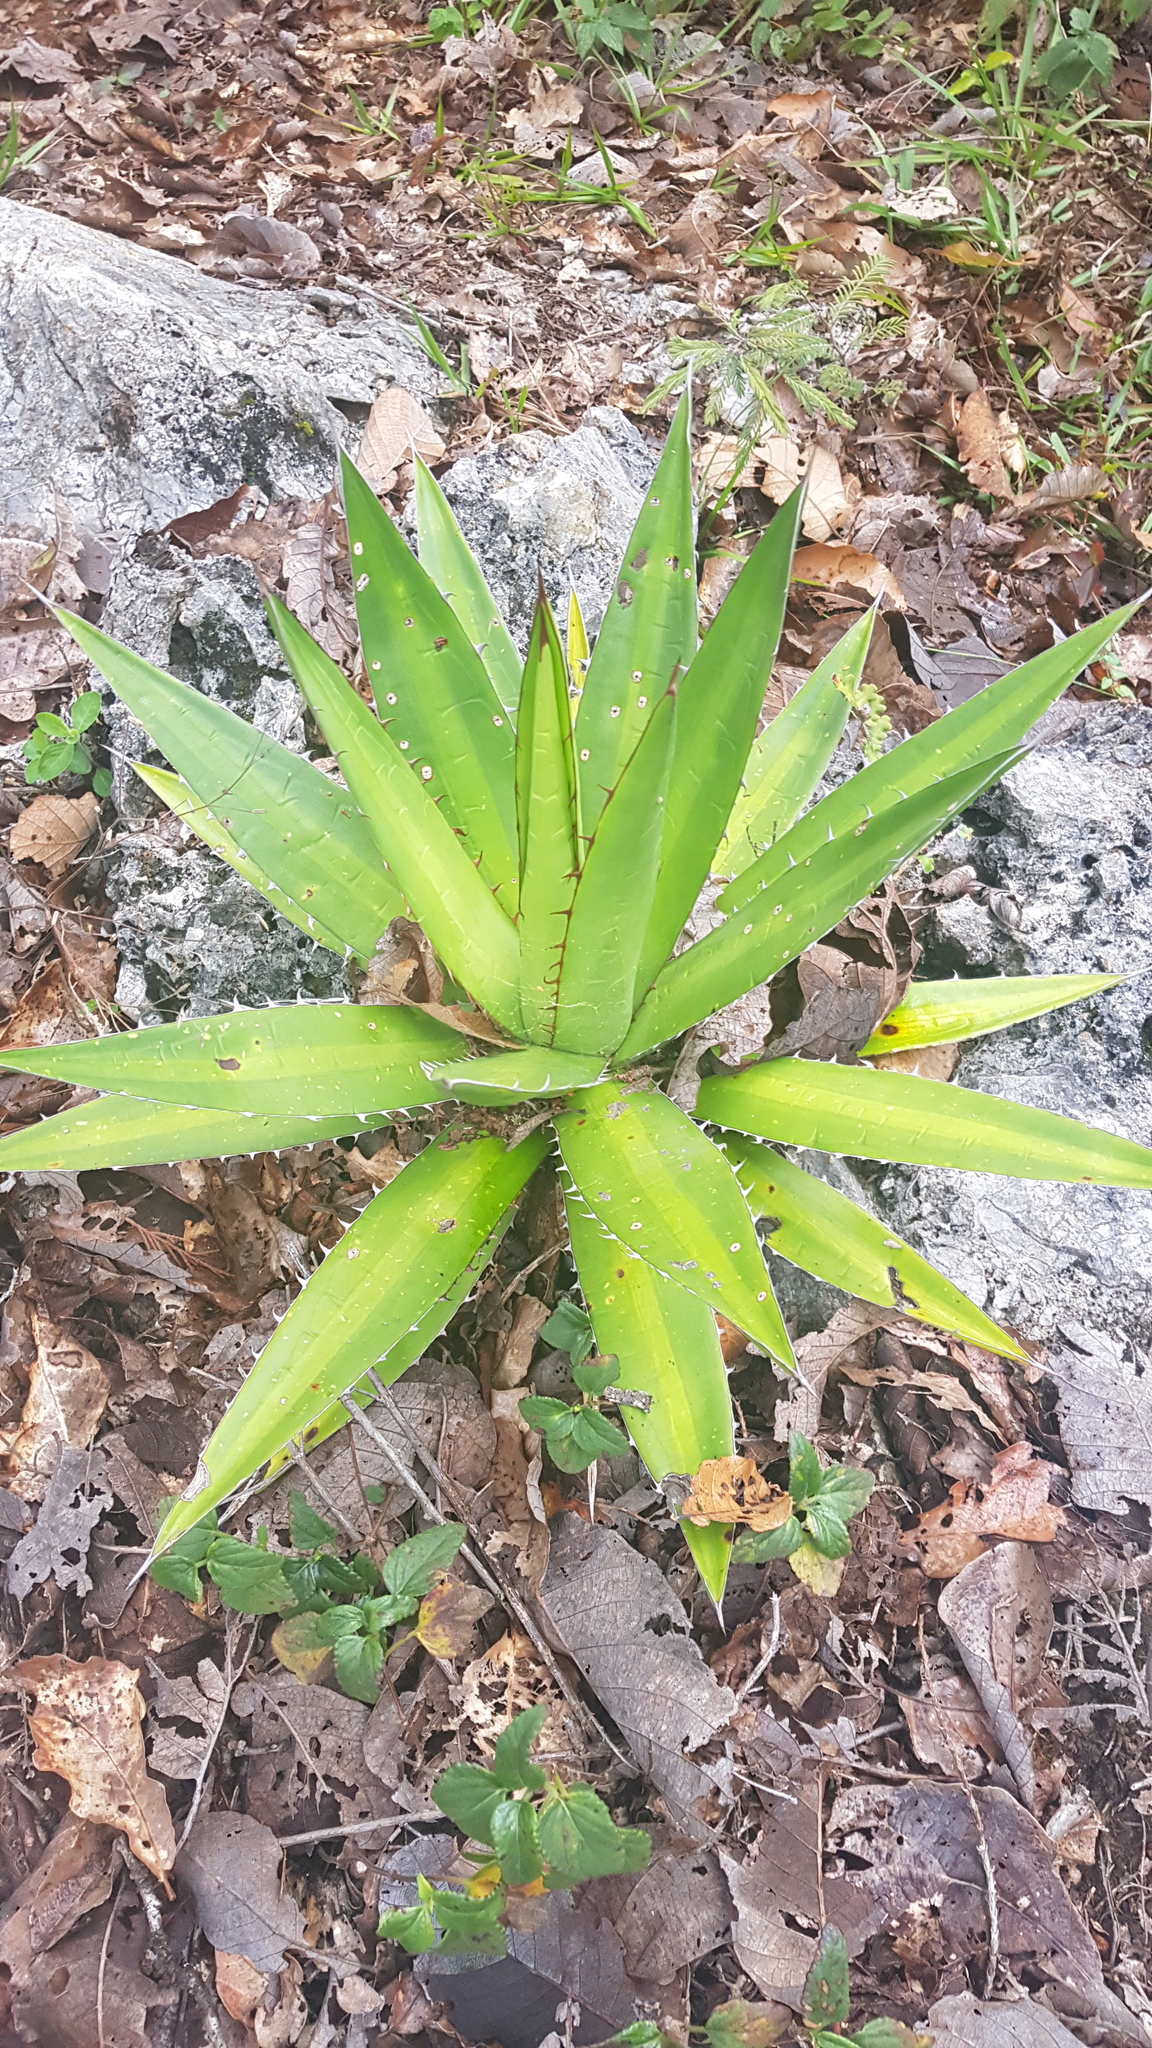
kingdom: Plantae
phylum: Tracheophyta
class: Liliopsida
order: Asparagales
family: Asparagaceae
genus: Agave
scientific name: Agave convallis
